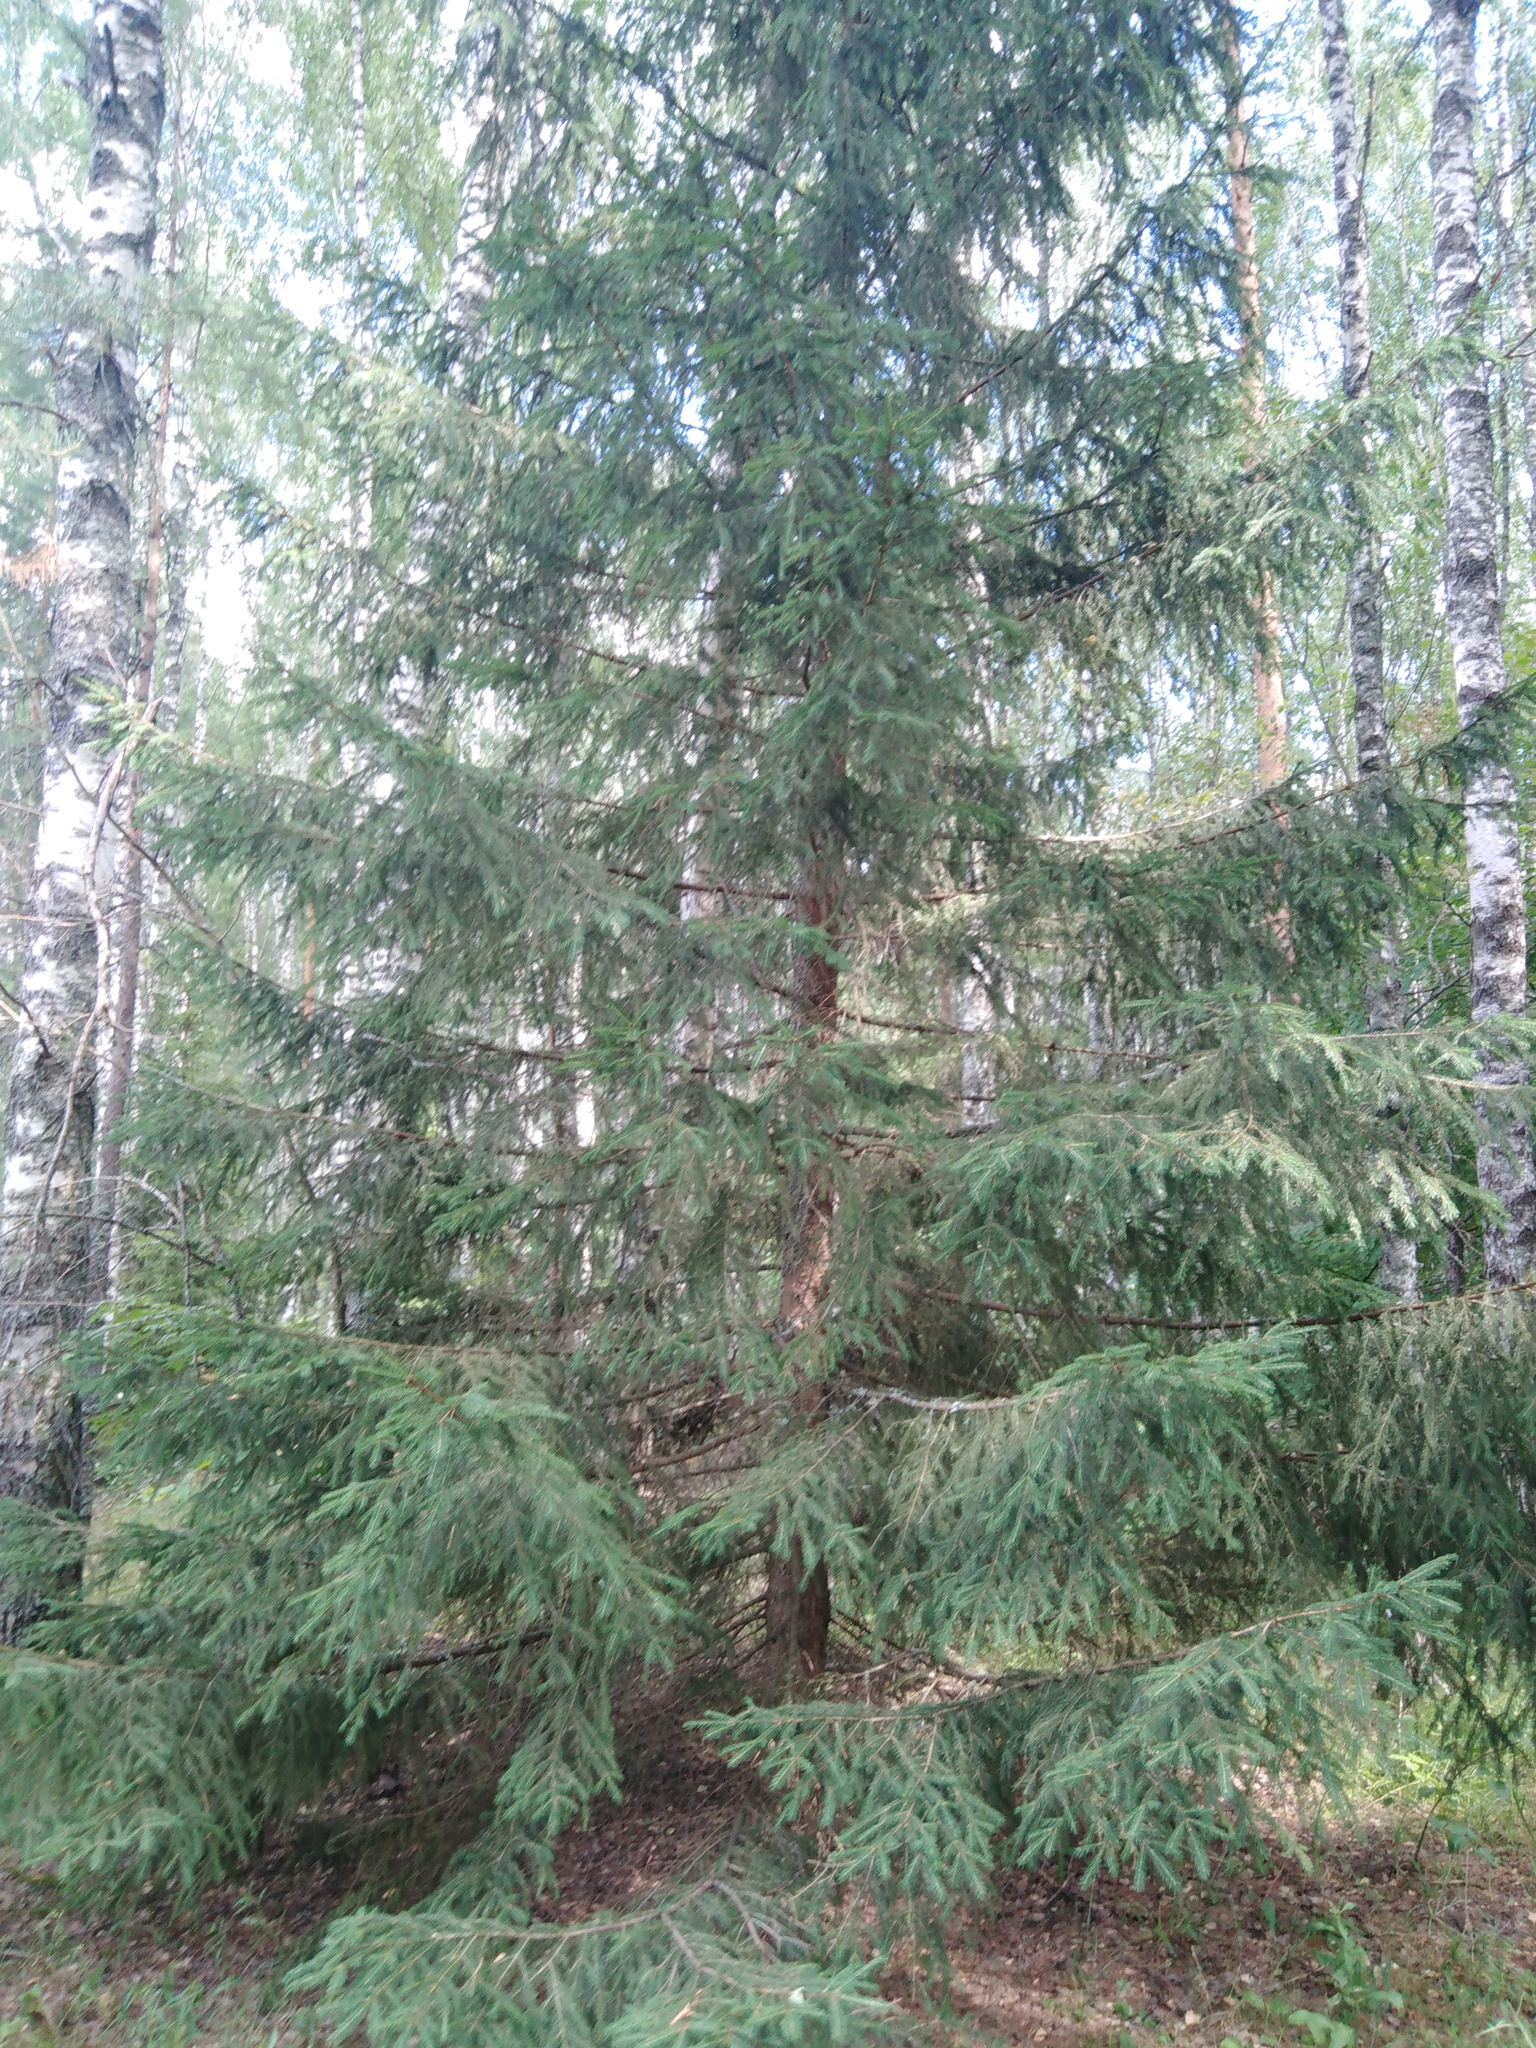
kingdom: Plantae
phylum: Tracheophyta
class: Pinopsida
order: Pinales
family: Pinaceae
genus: Picea
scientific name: Picea abies
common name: Norway spruce
